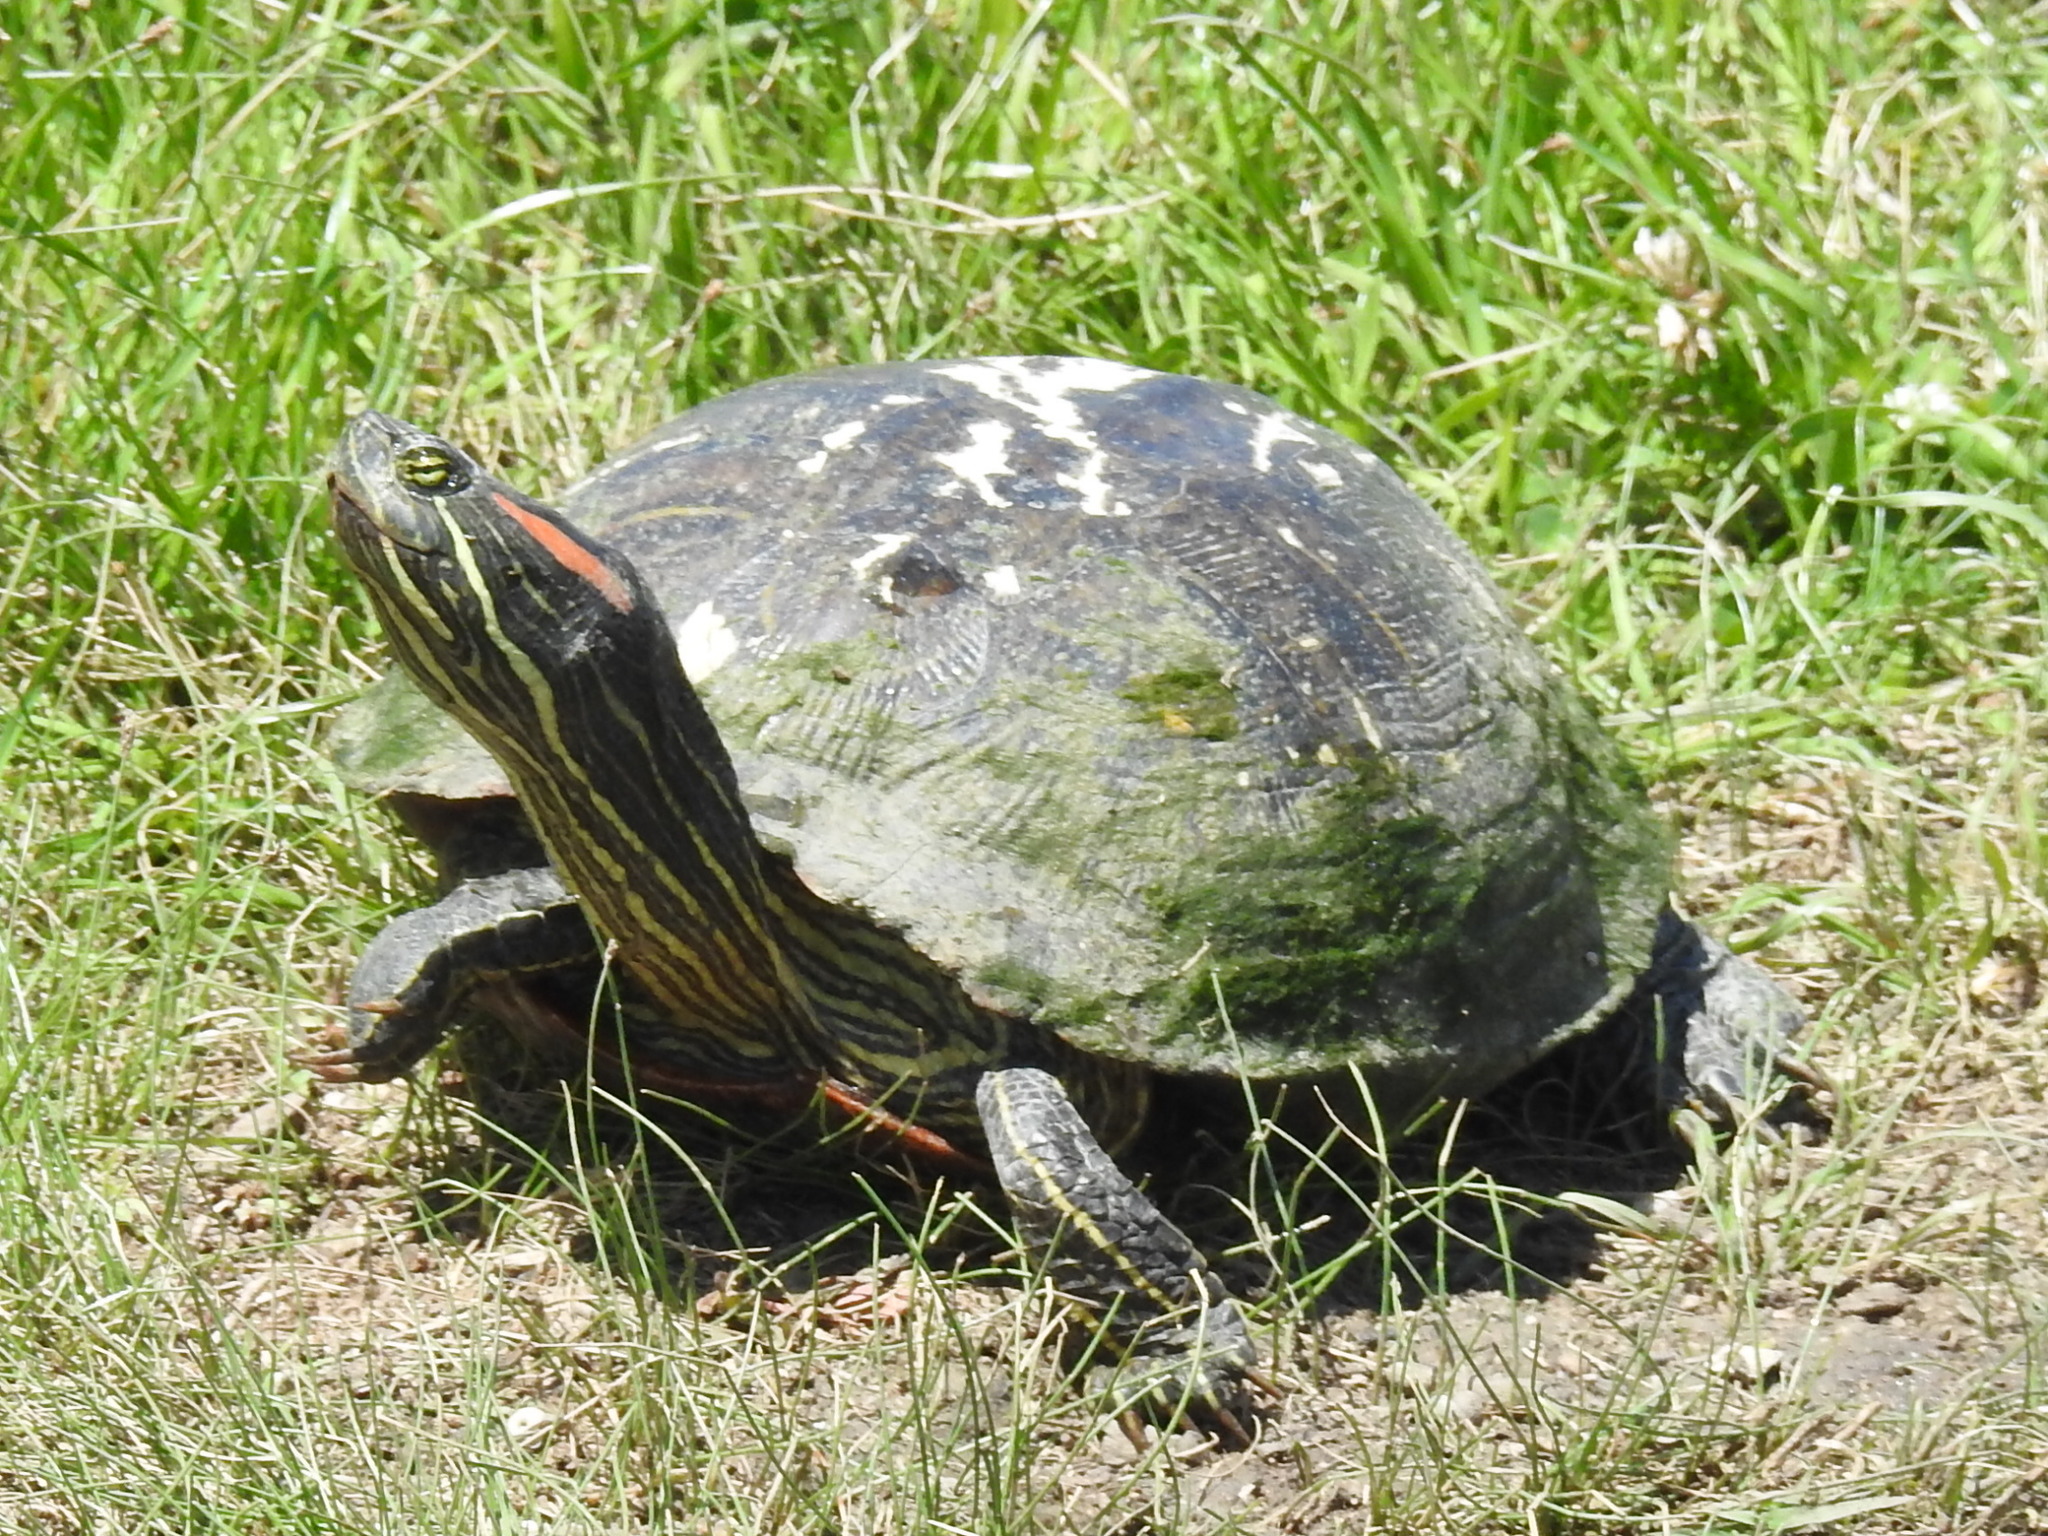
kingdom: Animalia
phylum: Chordata
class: Testudines
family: Emydidae
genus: Trachemys
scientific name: Trachemys scripta
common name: Slider
